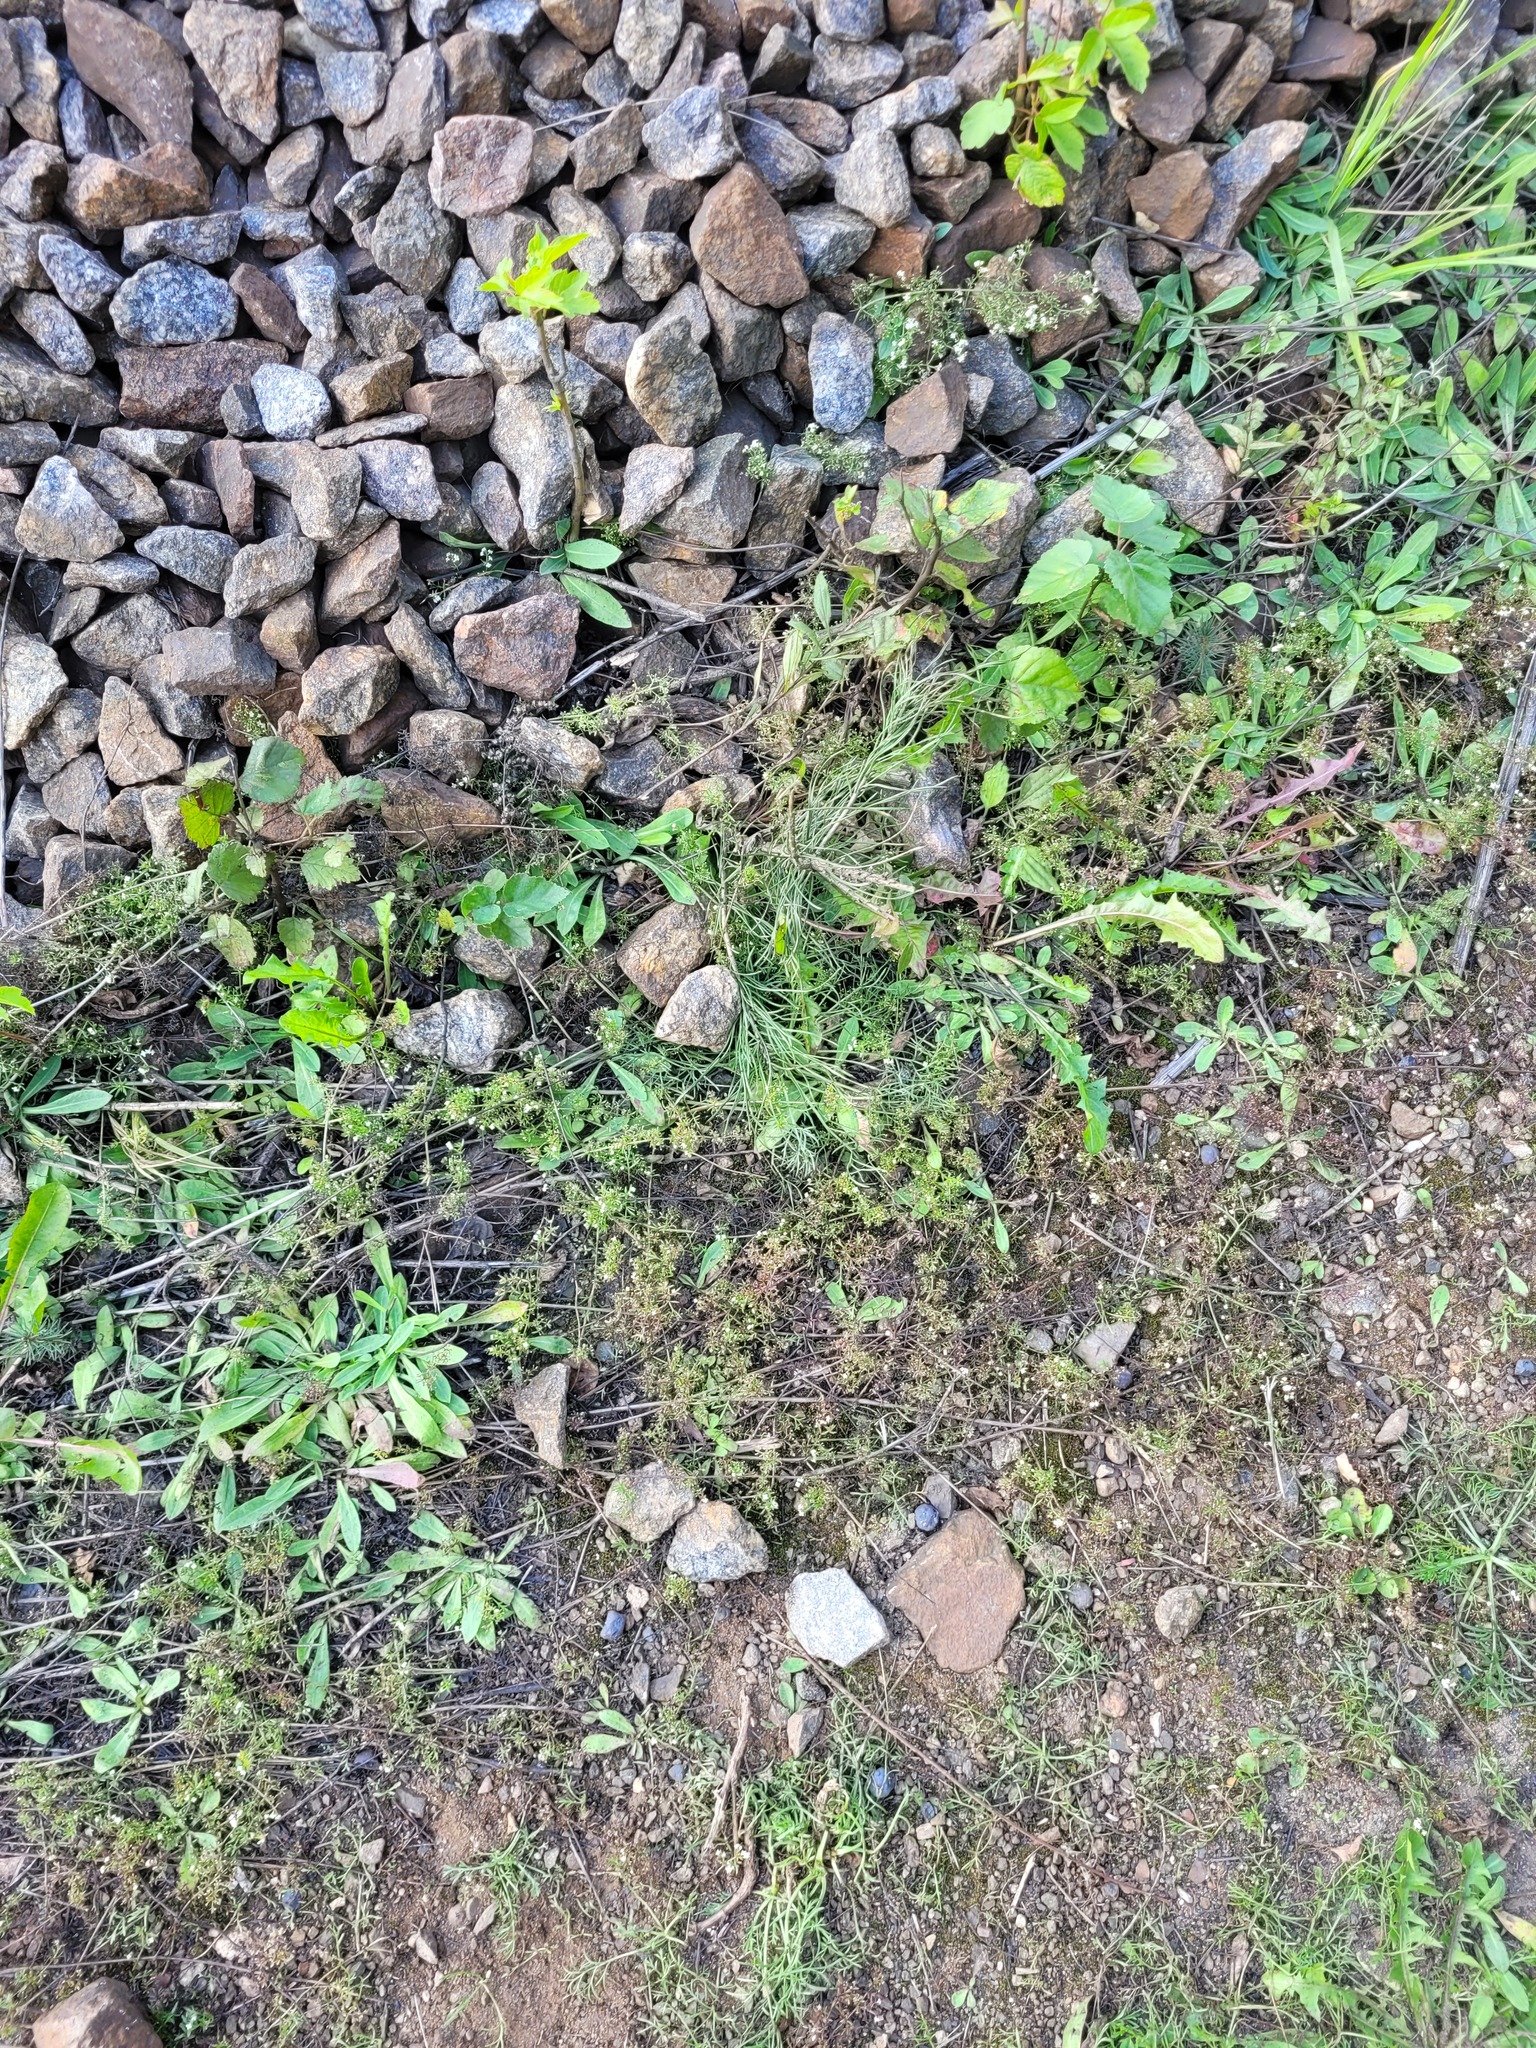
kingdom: Plantae
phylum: Tracheophyta
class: Magnoliopsida
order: Gentianales
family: Rubiaceae
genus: Galium
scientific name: Galium humifusum
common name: Spreading bedstraw
